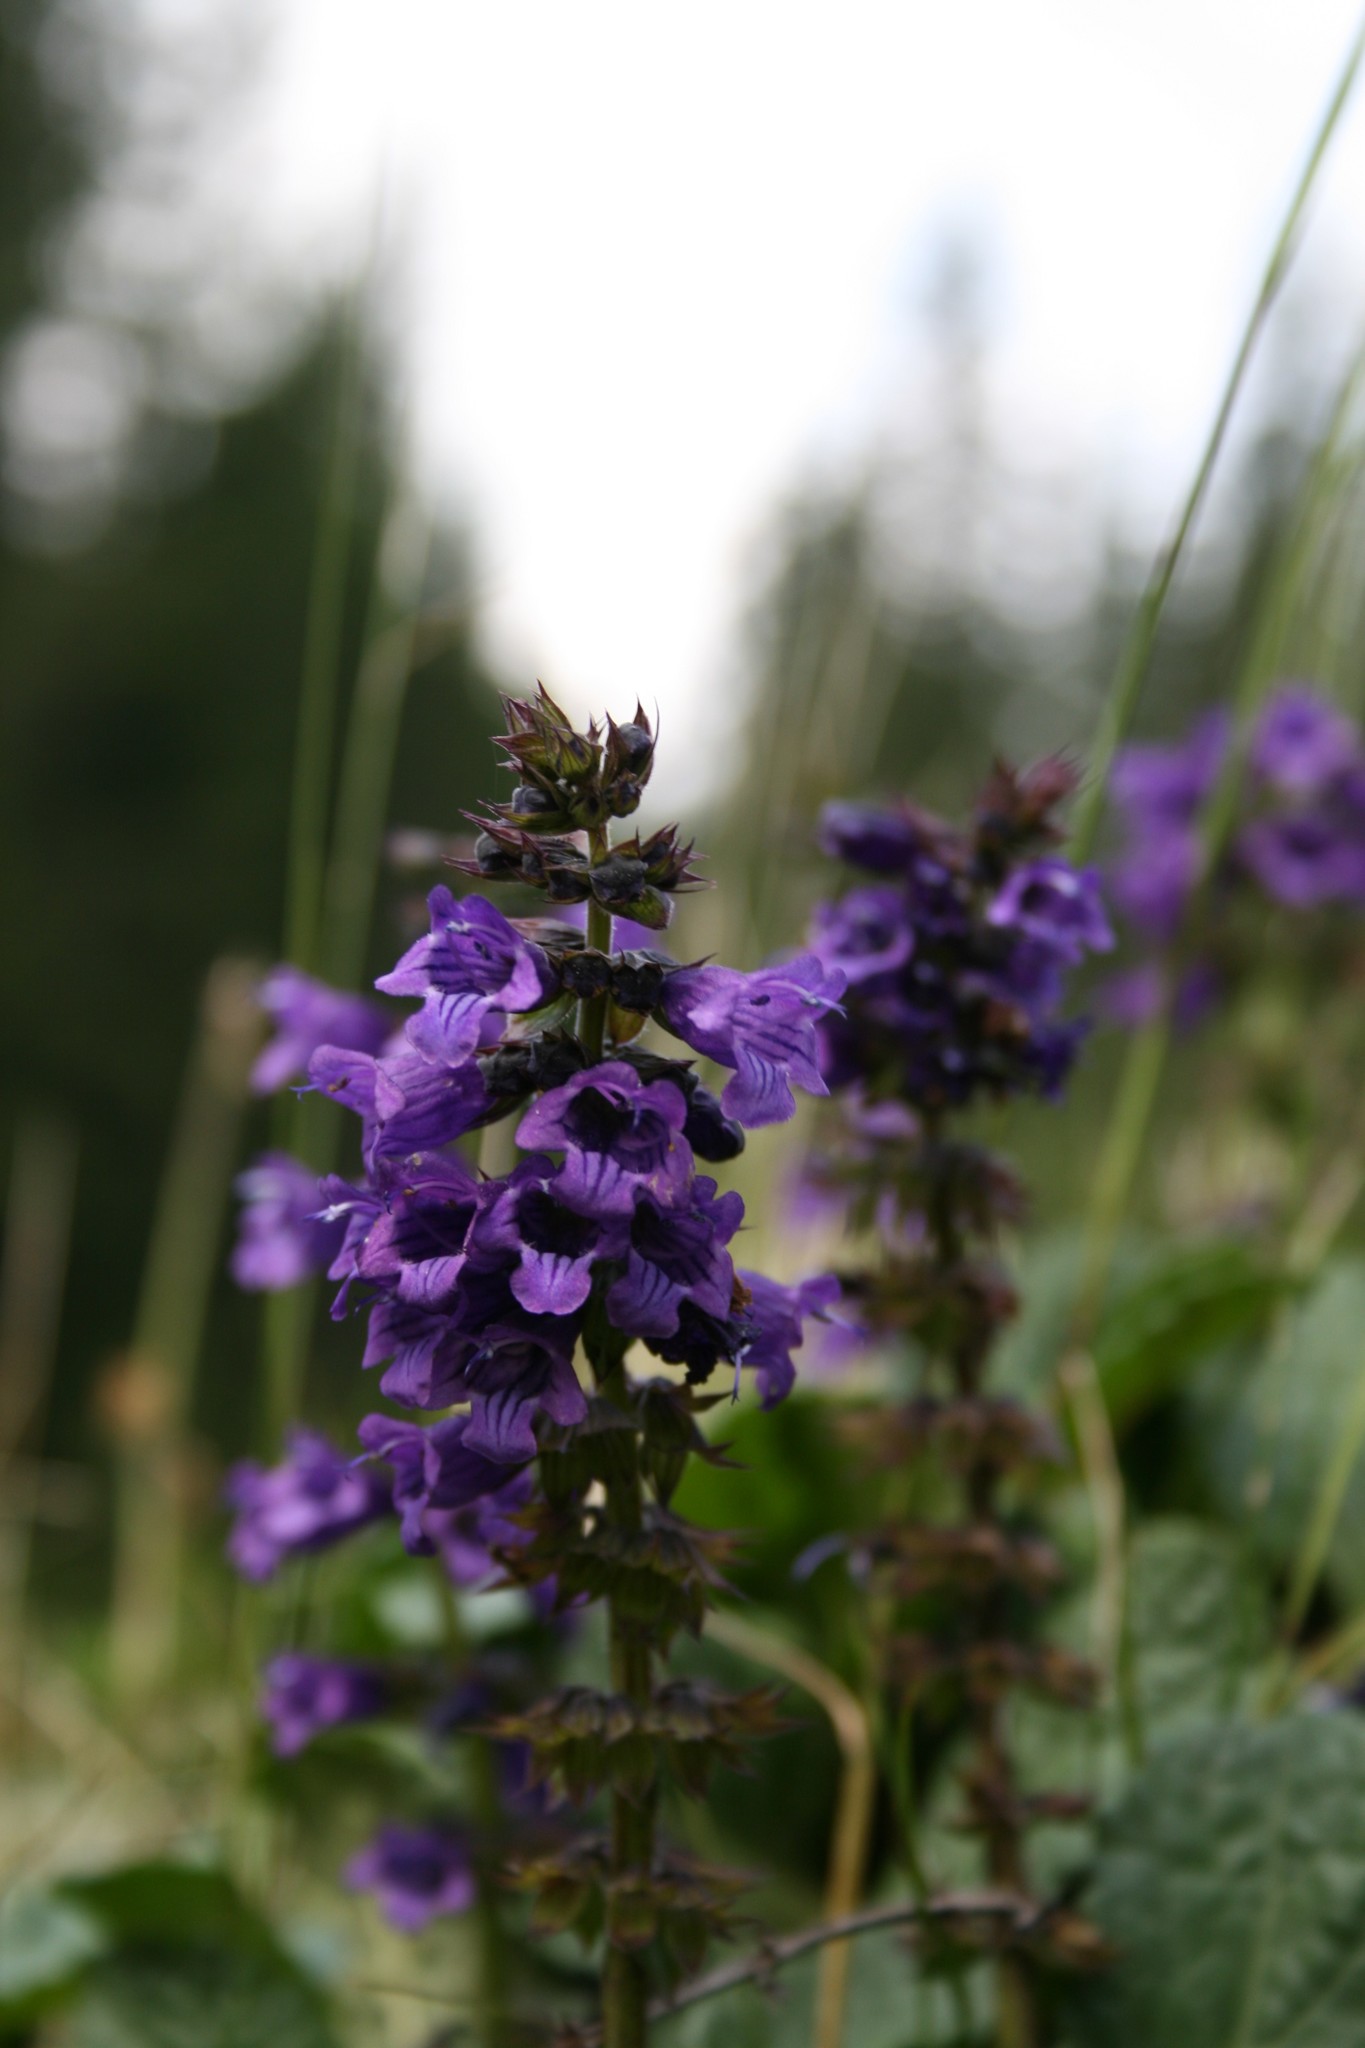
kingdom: Plantae
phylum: Tracheophyta
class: Magnoliopsida
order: Lamiales
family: Lamiaceae
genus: Horminum
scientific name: Horminum pyrenaicum
